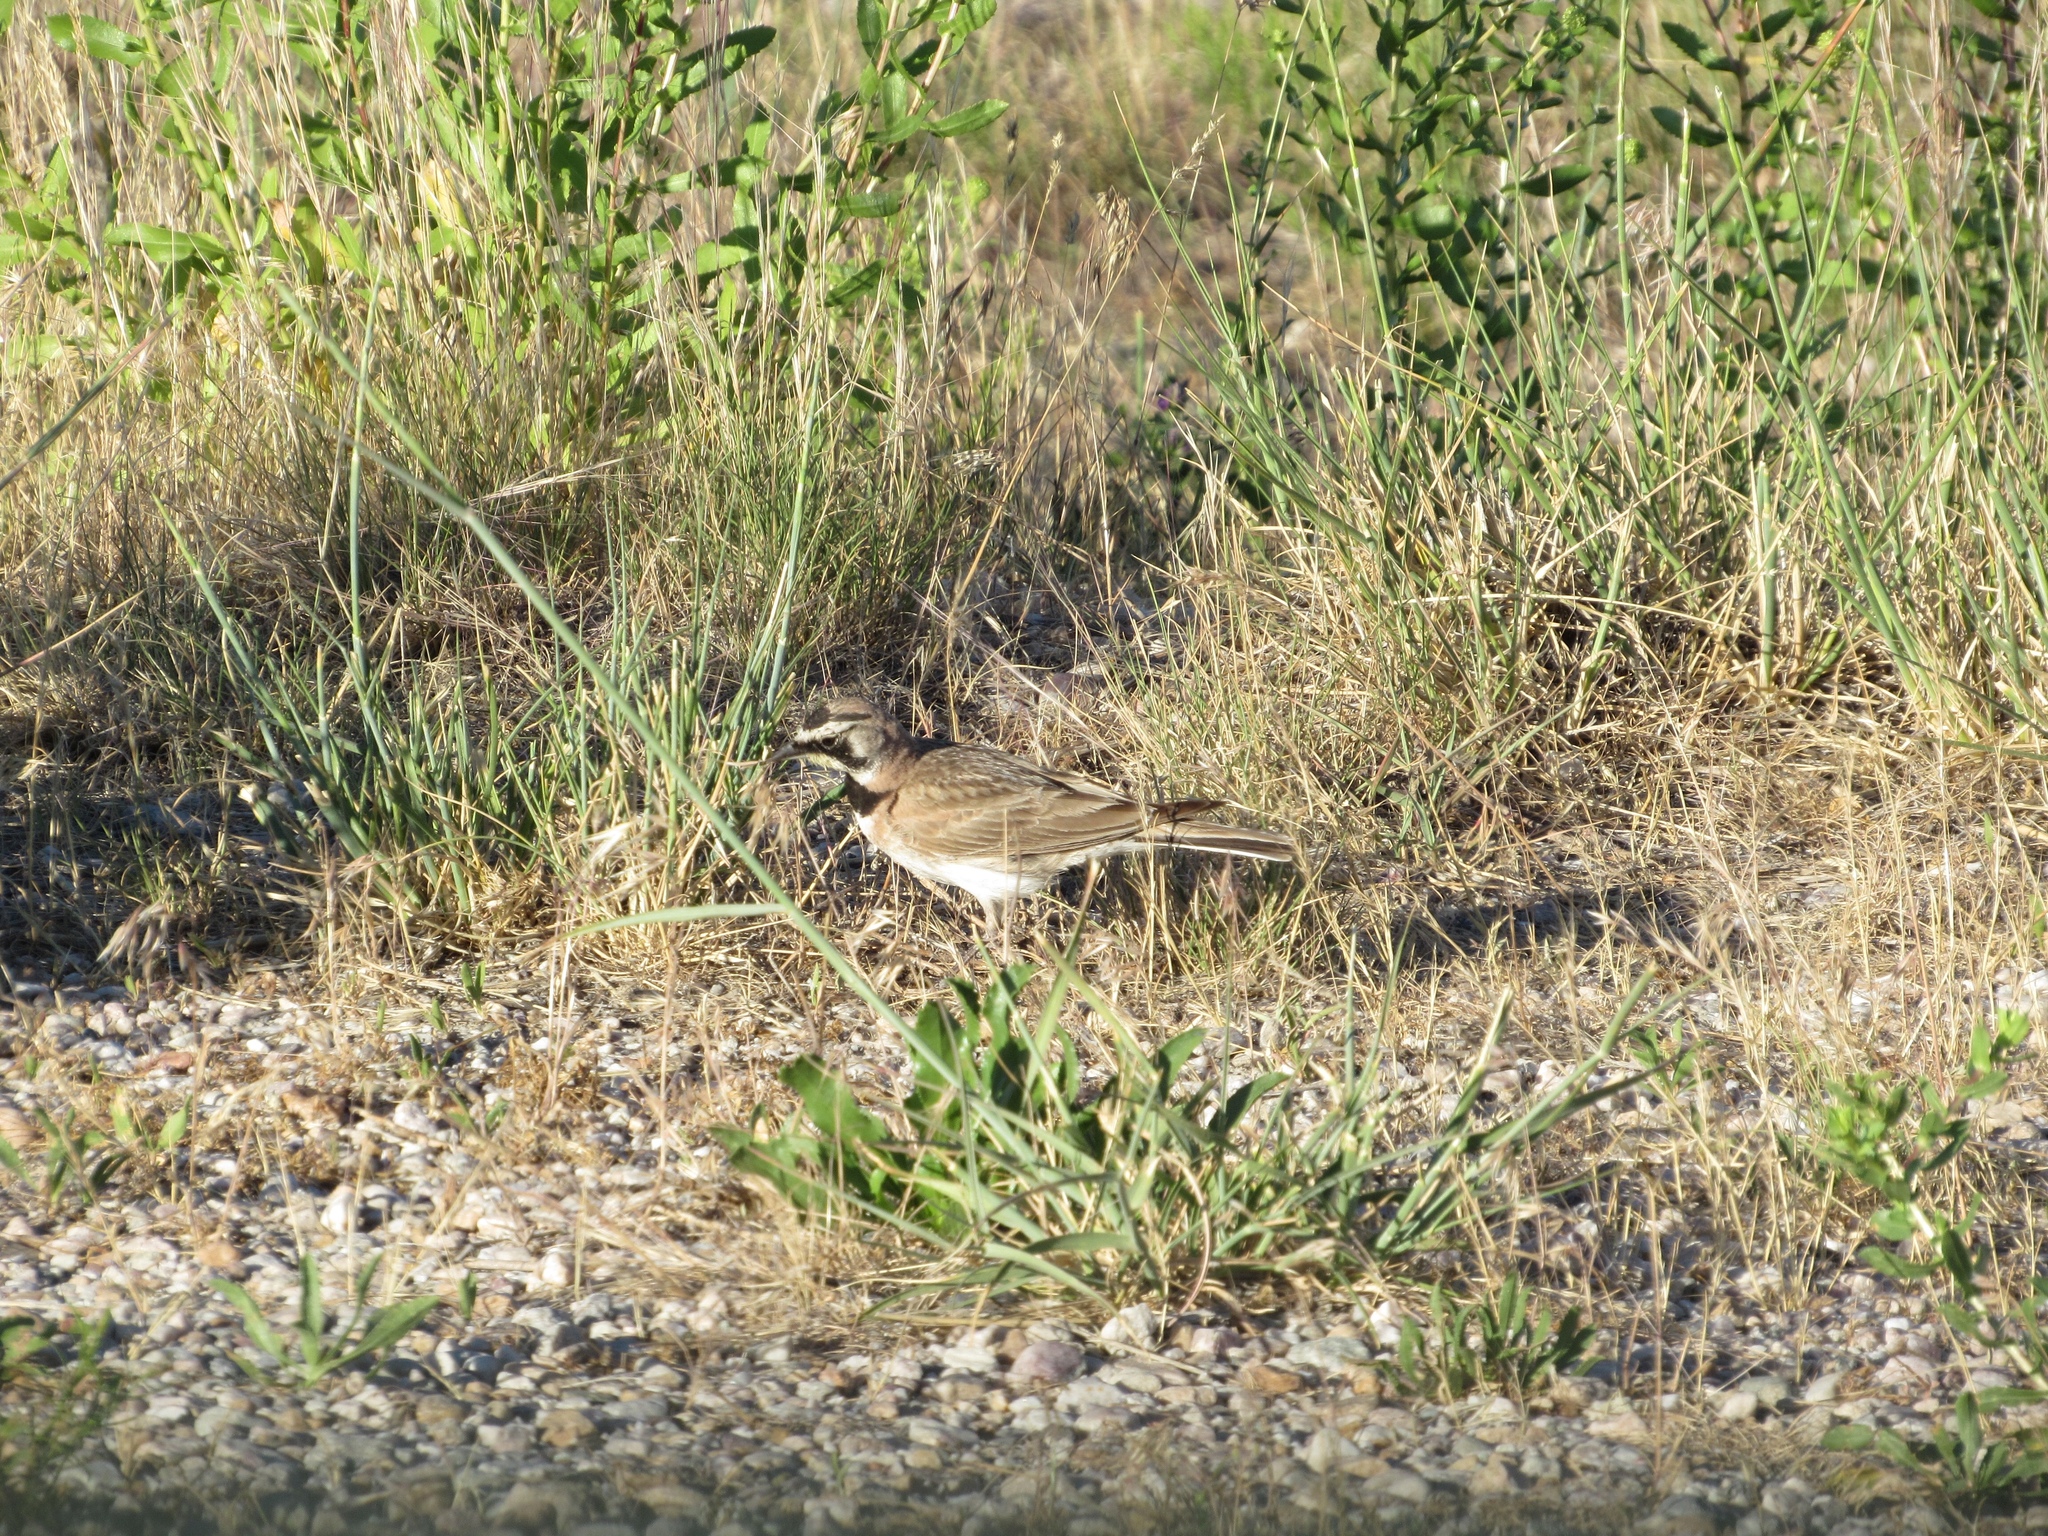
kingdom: Animalia
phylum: Chordata
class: Aves
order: Passeriformes
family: Alaudidae
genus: Eremophila
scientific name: Eremophila alpestris
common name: Horned lark
